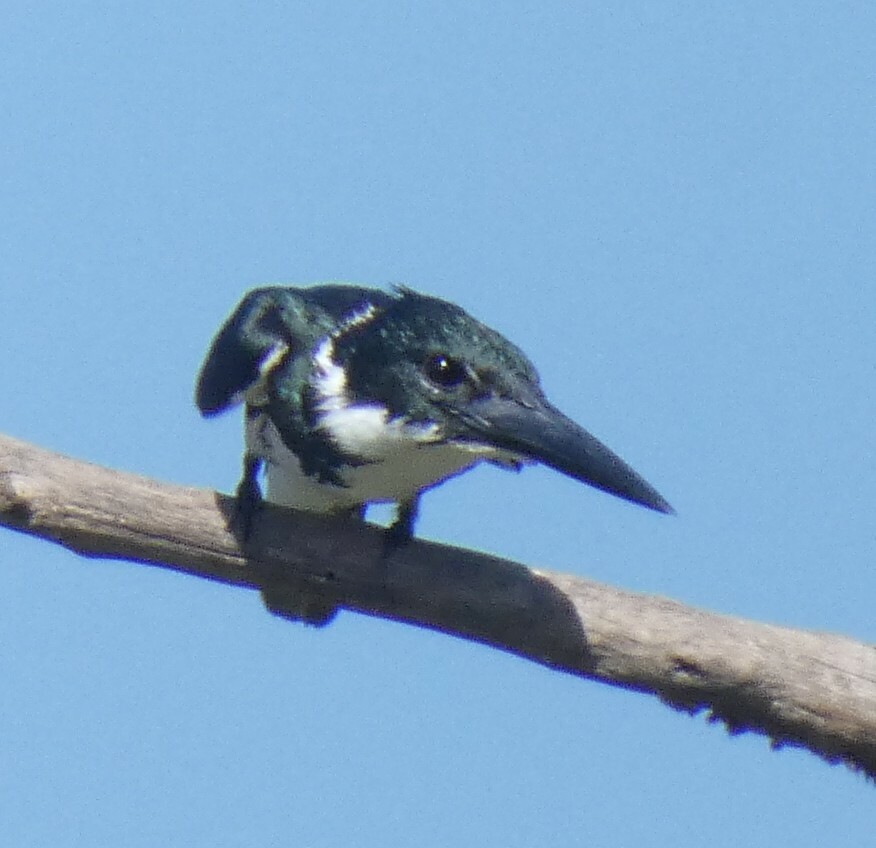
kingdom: Animalia
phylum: Chordata
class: Aves
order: Coraciiformes
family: Alcedinidae
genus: Chloroceryle
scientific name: Chloroceryle amazona
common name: Amazon kingfisher
